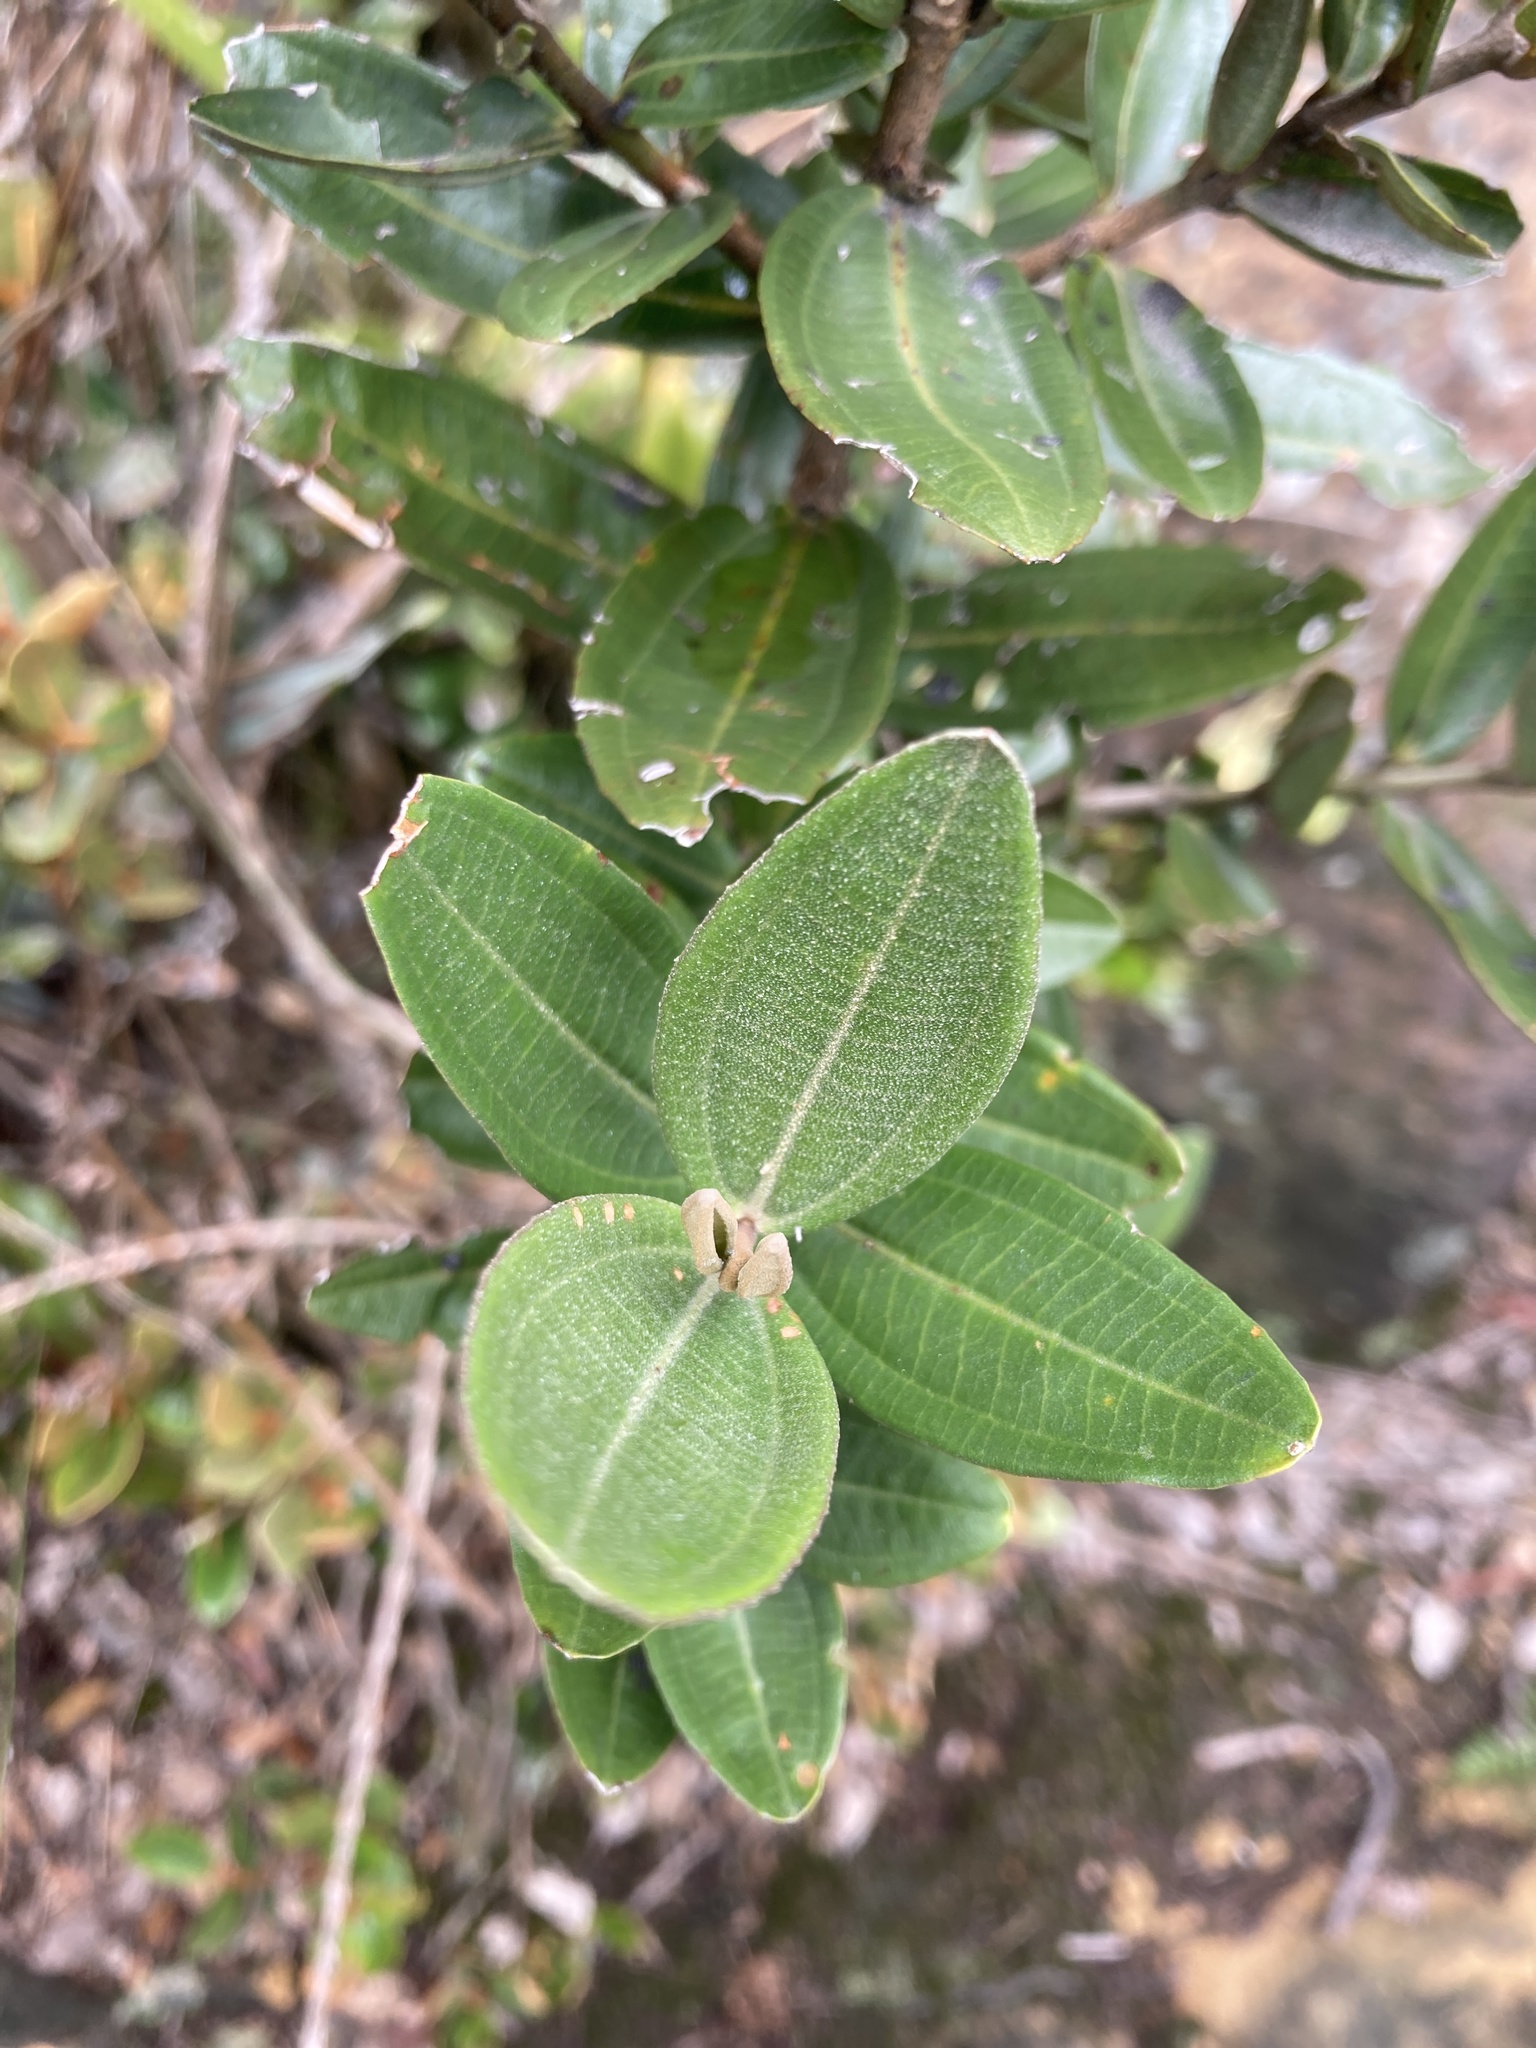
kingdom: Plantae
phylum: Tracheophyta
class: Magnoliopsida
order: Myrtales
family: Melastomataceae
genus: Miconia
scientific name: Miconia squamulosa
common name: Squamulose maya
